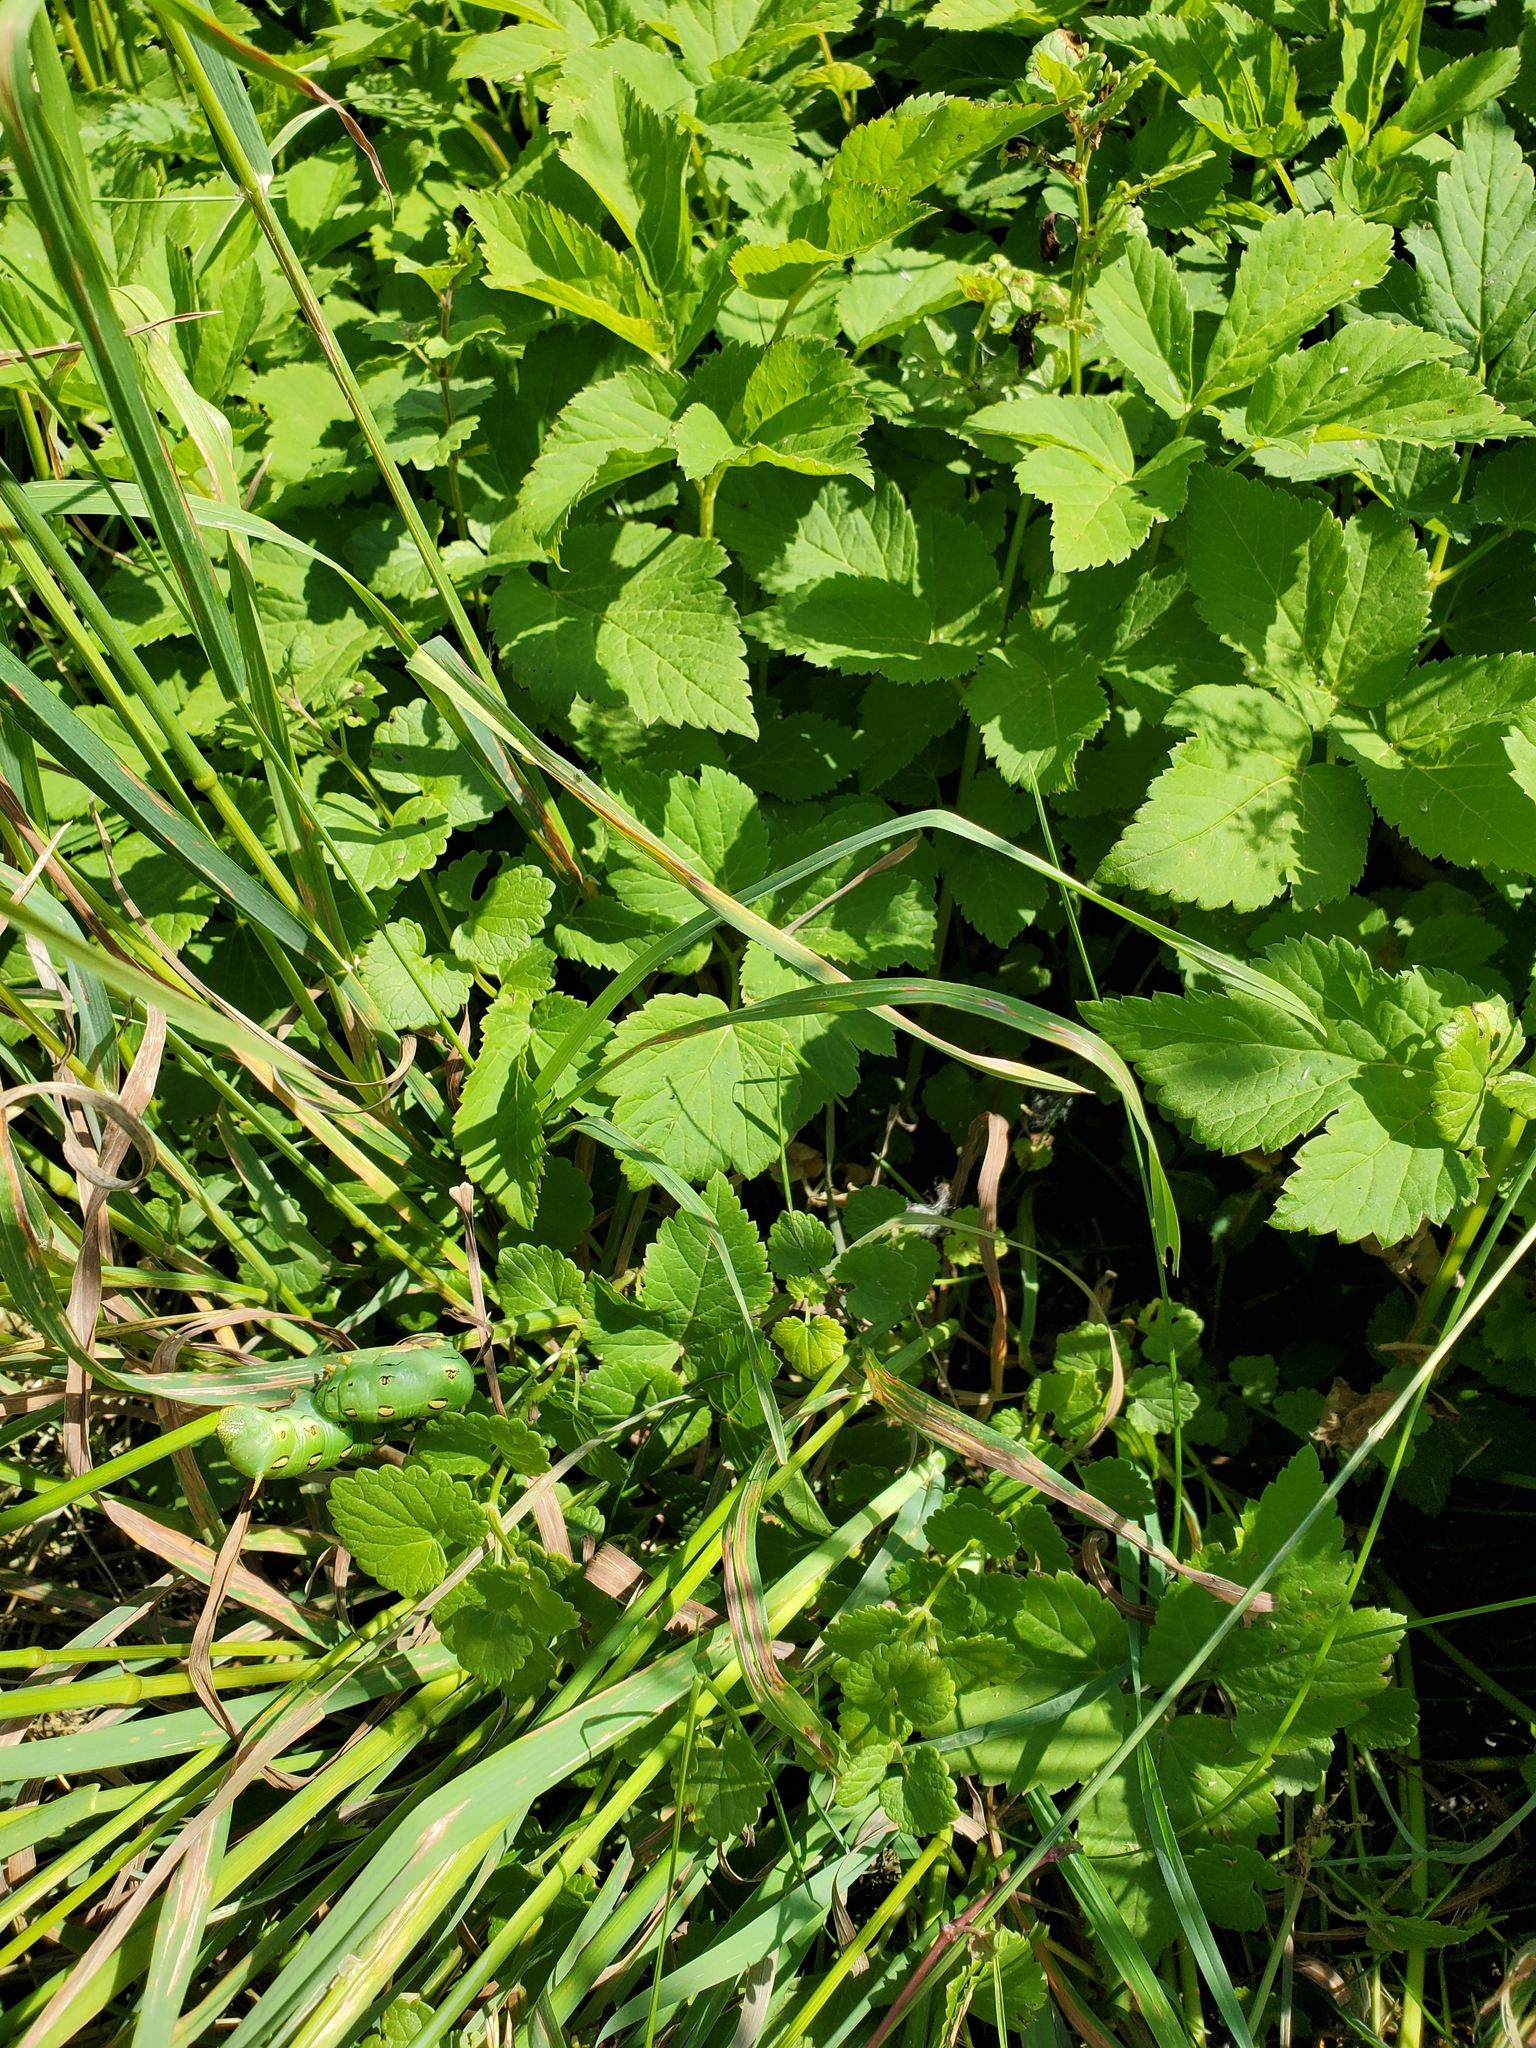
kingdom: Animalia
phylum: Arthropoda
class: Insecta
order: Lepidoptera
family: Sphingidae
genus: Hyles
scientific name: Hyles lineata
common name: White-lined sphinx
